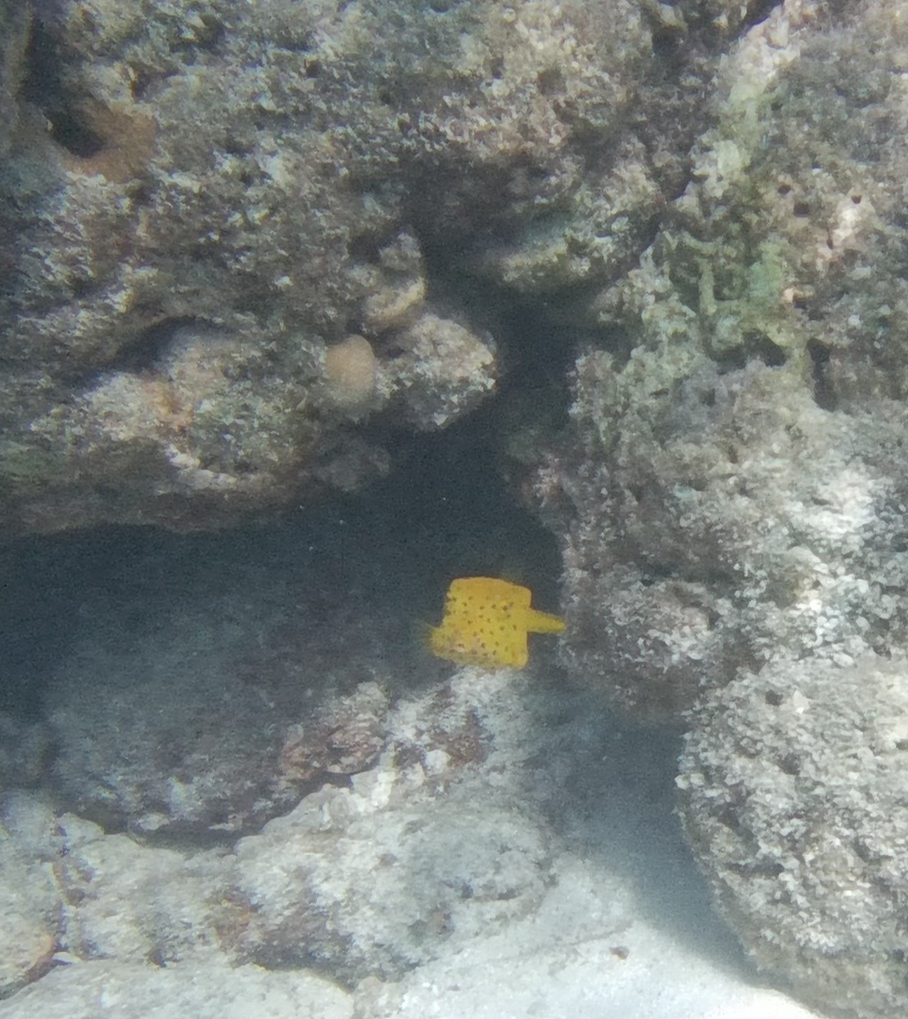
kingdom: Animalia
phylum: Chordata
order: Tetraodontiformes
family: Ostraciidae
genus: Ostracion
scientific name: Ostracion cubicus
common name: Cube trunkfish
